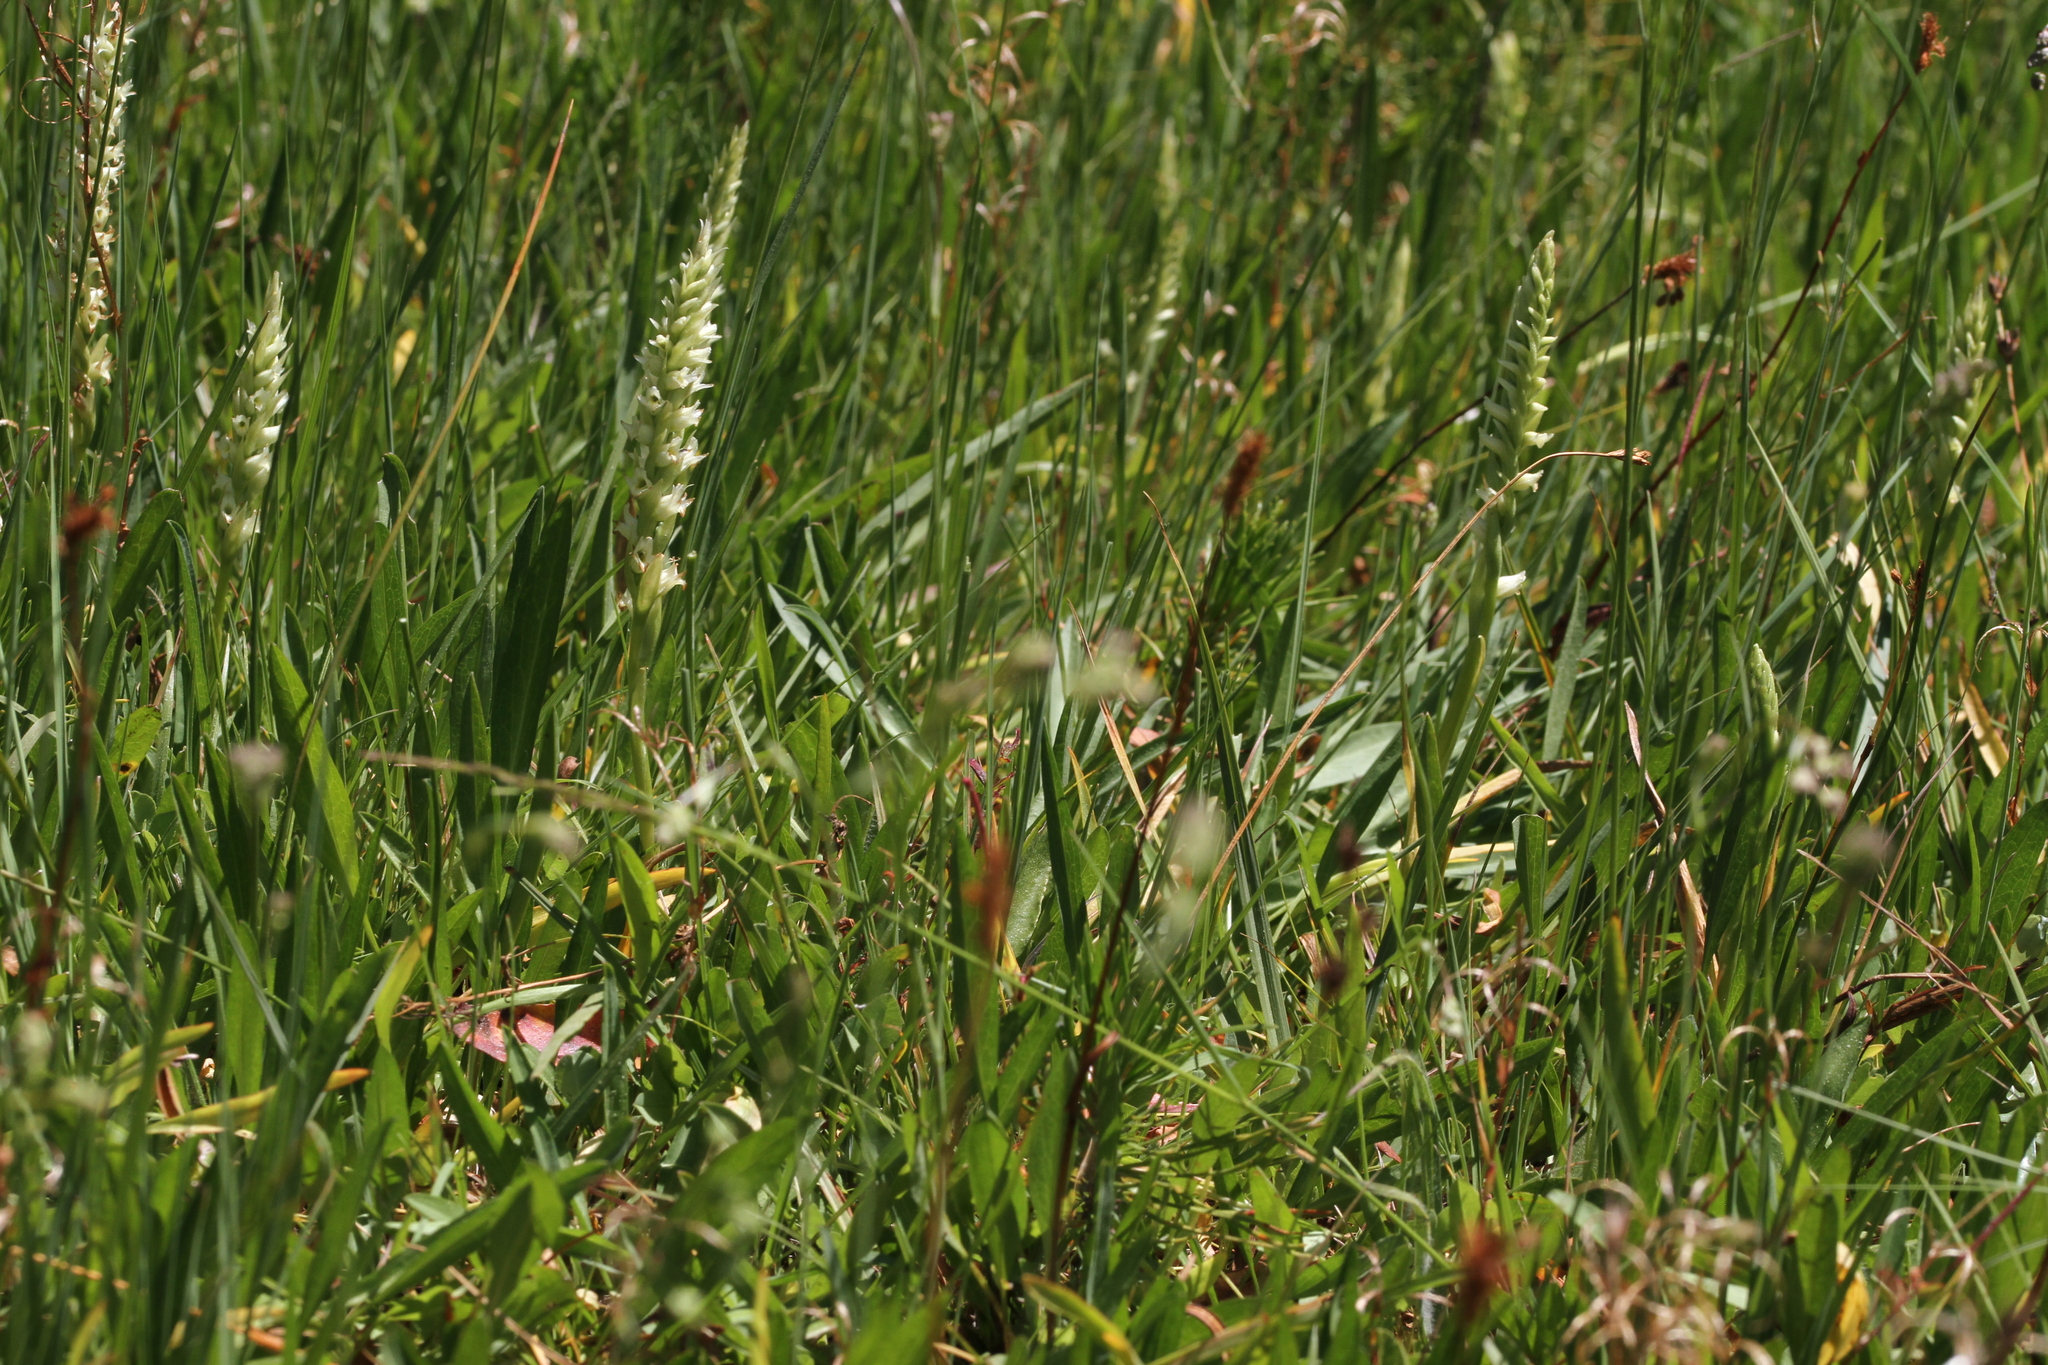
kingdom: Plantae
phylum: Tracheophyta
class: Liliopsida
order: Asparagales
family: Orchidaceae
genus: Spiranthes
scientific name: Spiranthes stellata
